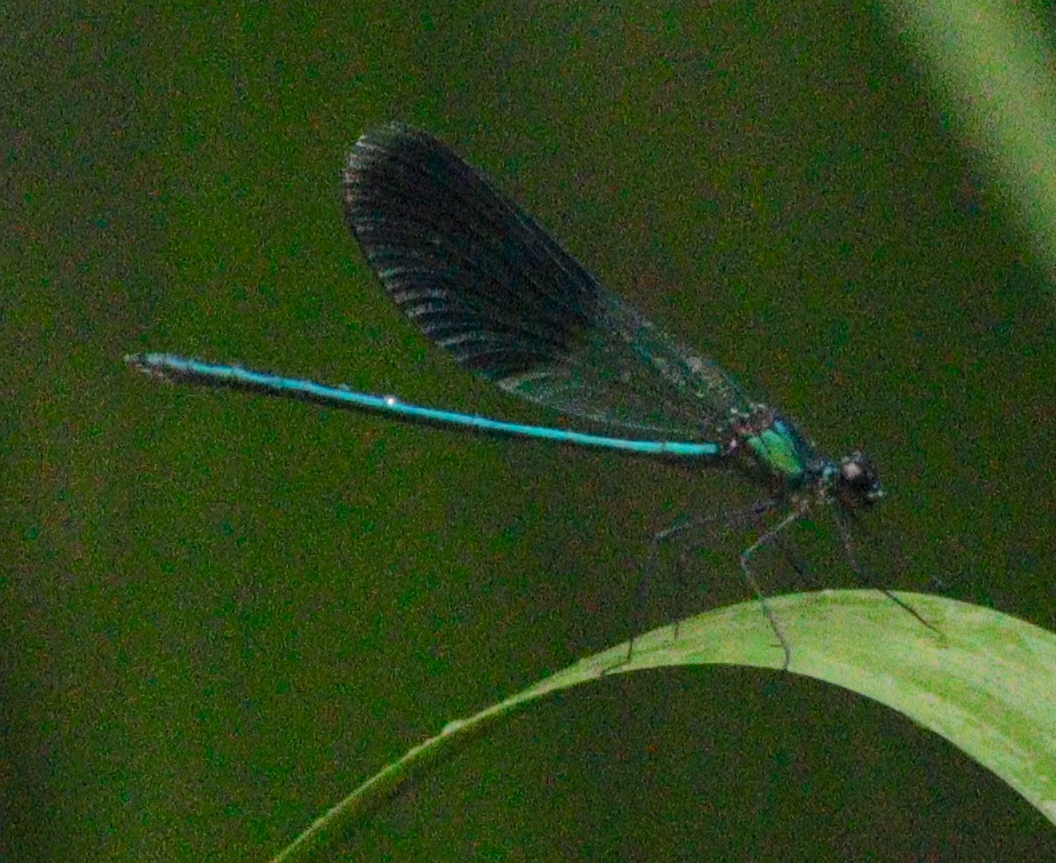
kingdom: Animalia
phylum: Arthropoda
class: Insecta
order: Odonata
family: Calopterygidae
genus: Calopteryx
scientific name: Calopteryx splendens
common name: Banded demoiselle
